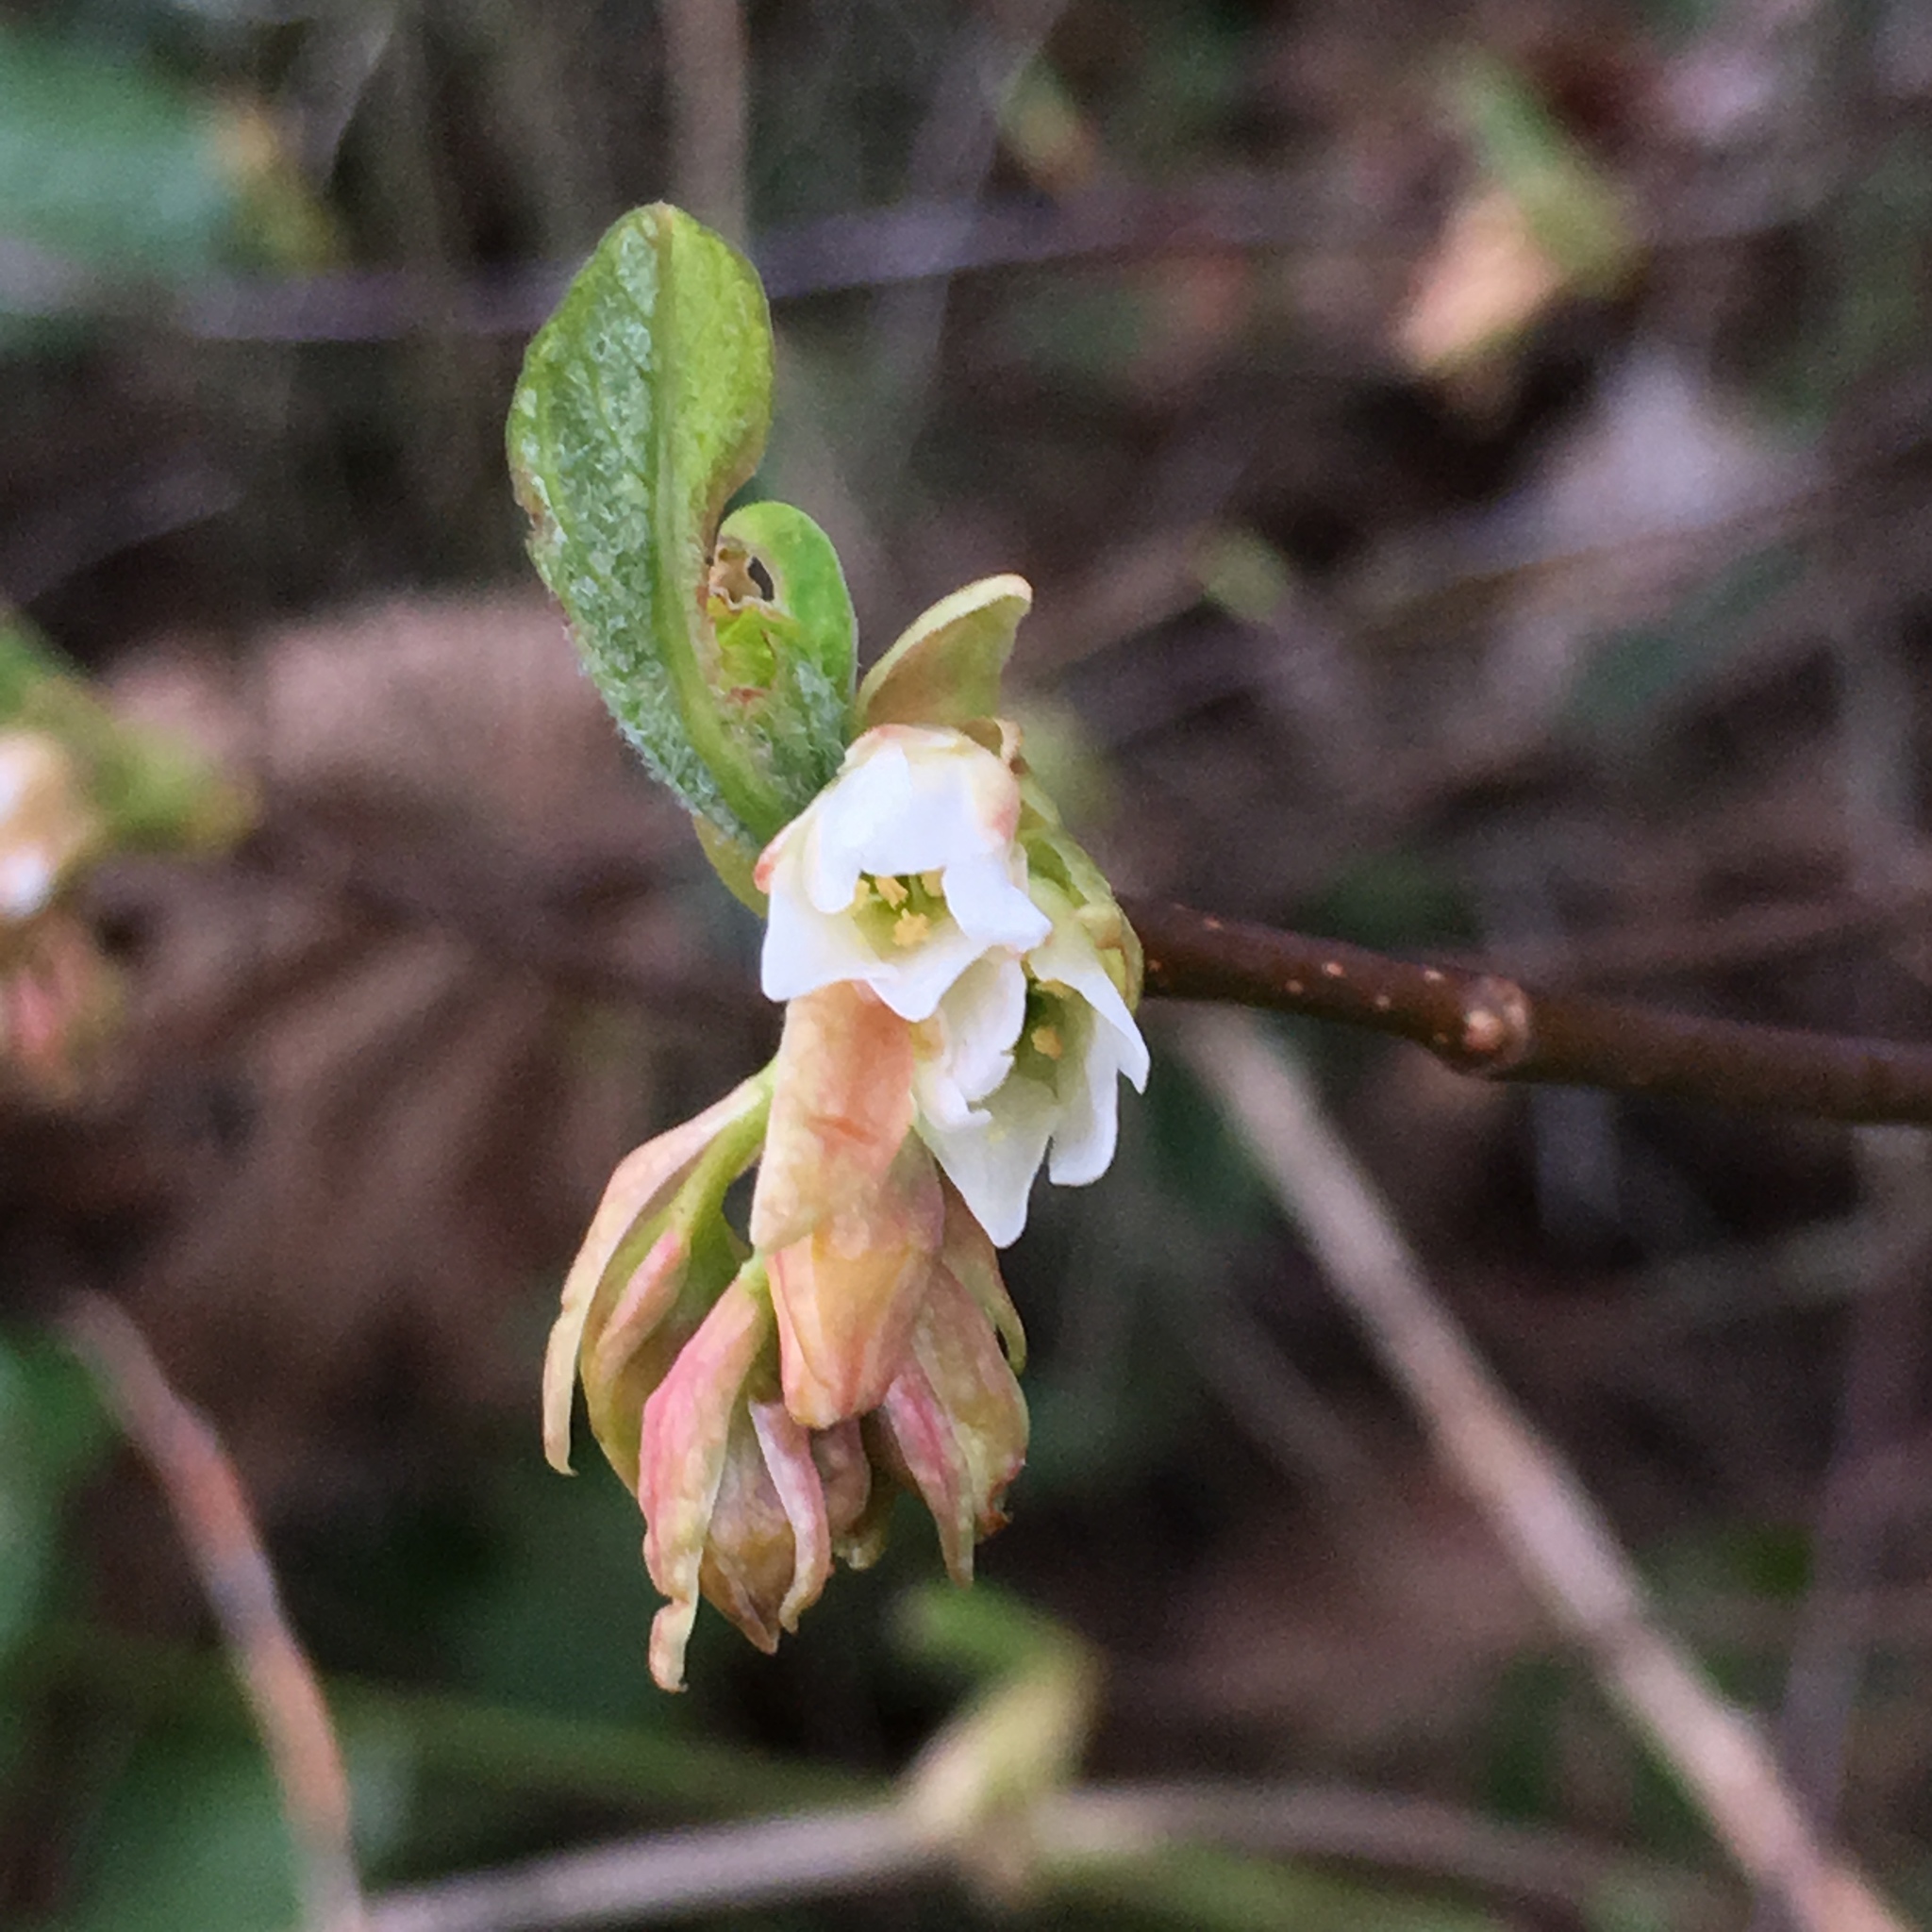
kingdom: Plantae
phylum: Tracheophyta
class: Magnoliopsida
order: Rosales
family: Rosaceae
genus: Oemleria
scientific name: Oemleria cerasiformis
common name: Osoberry
